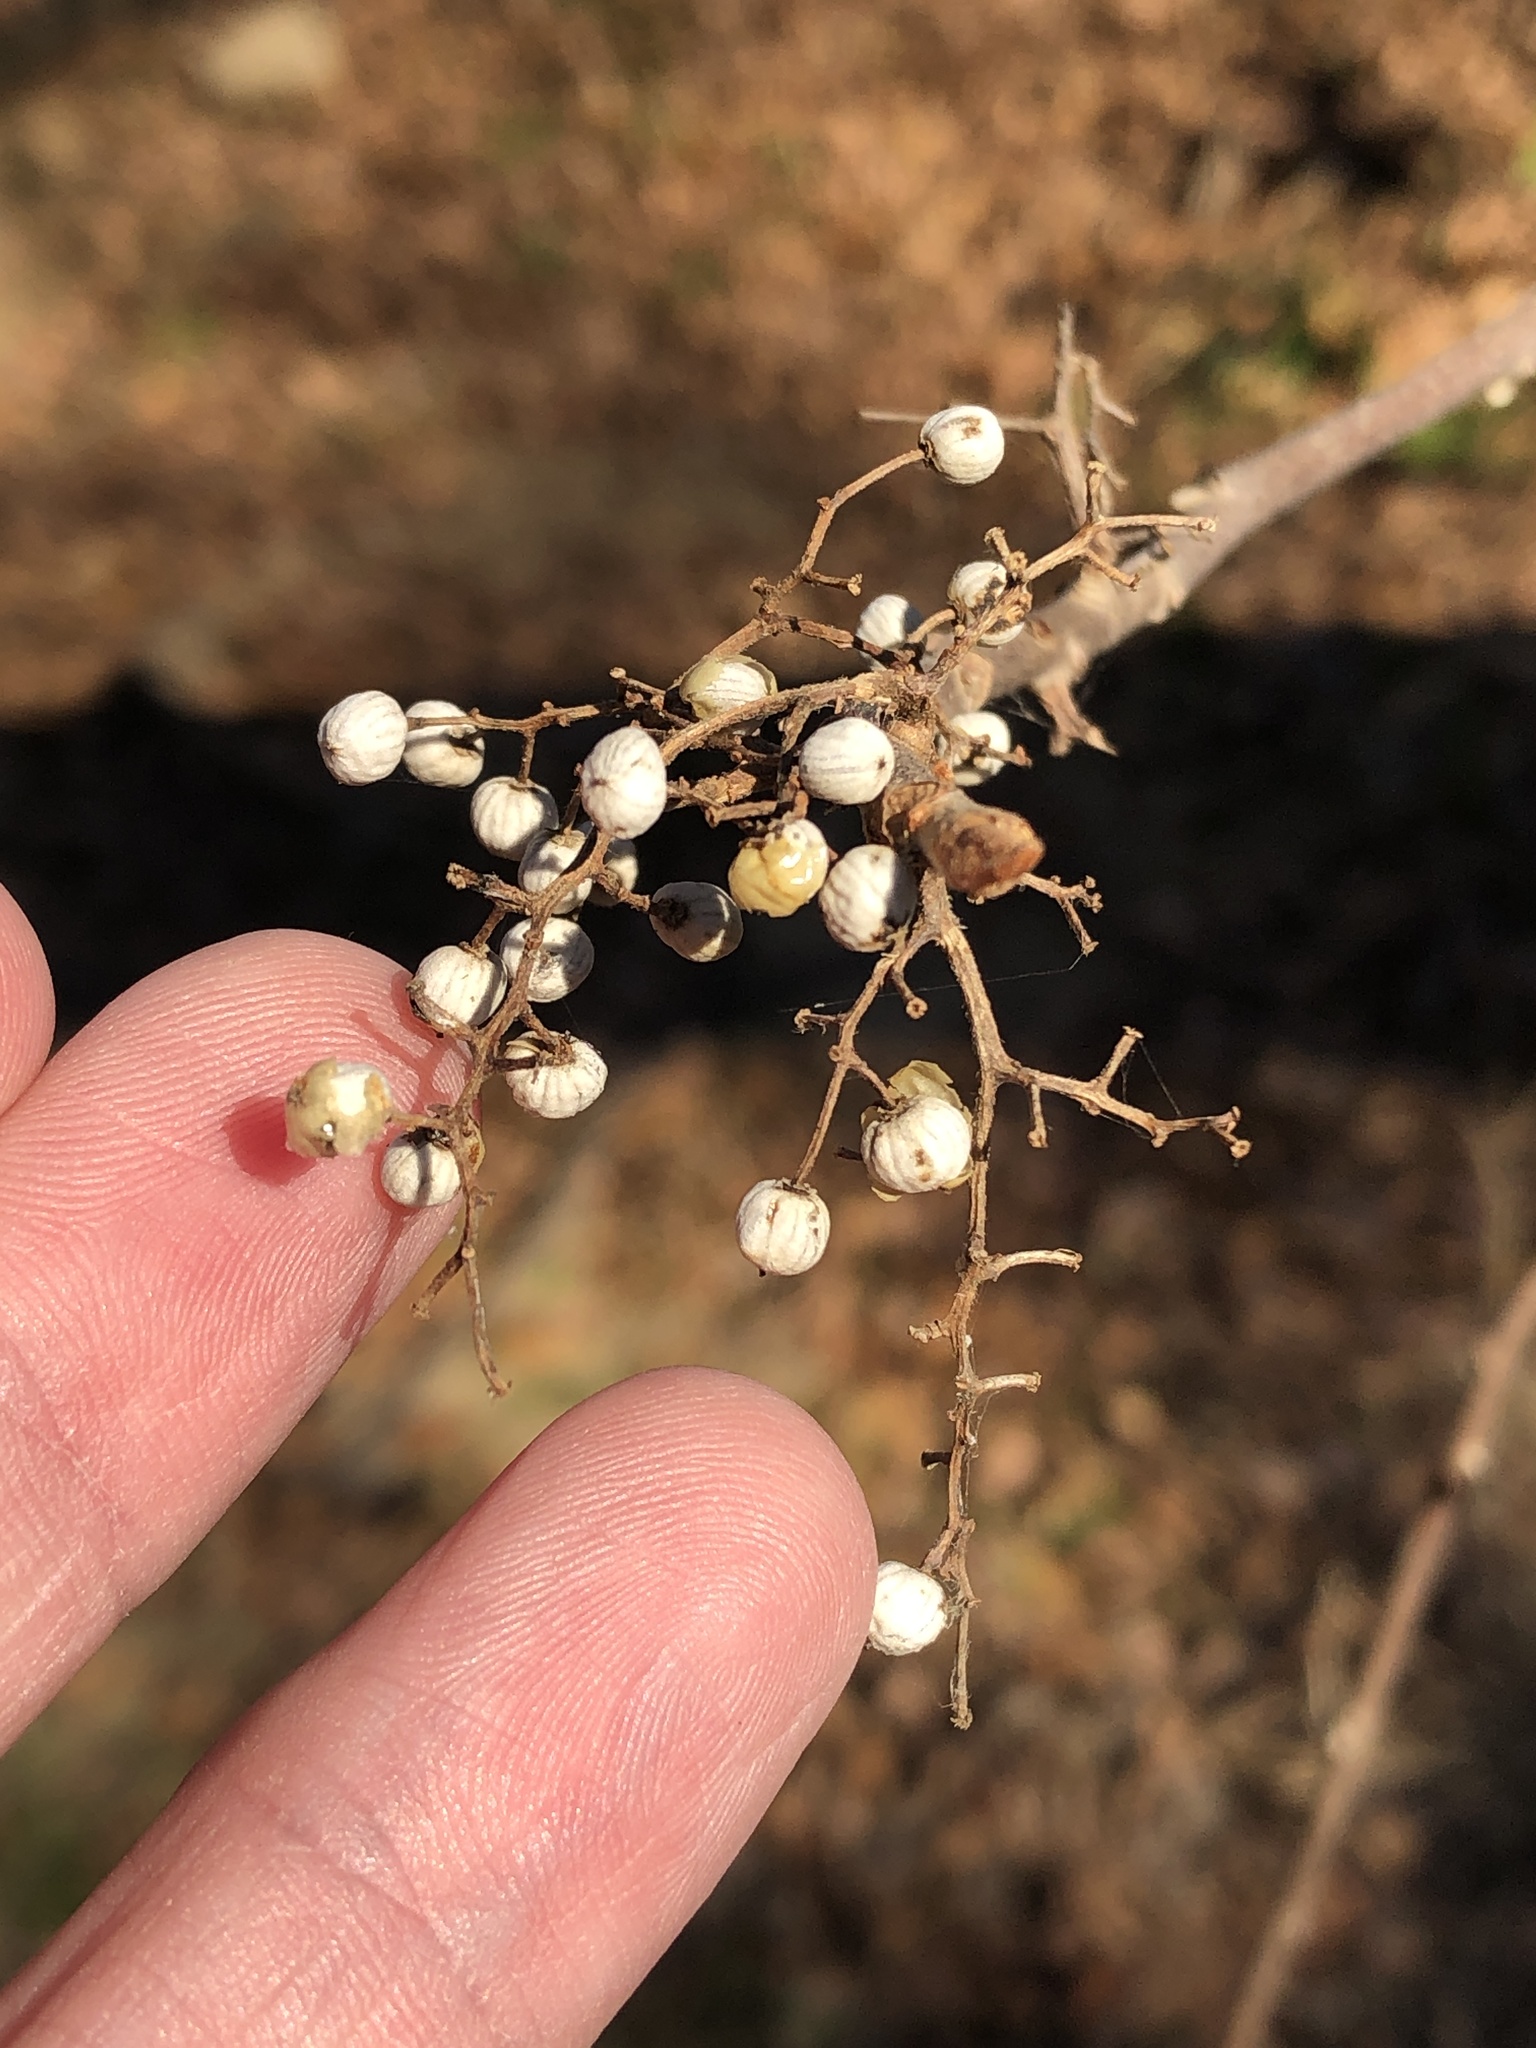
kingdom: Plantae
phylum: Tracheophyta
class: Magnoliopsida
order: Sapindales
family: Anacardiaceae
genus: Toxicodendron
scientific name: Toxicodendron radicans
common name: Poison ivy
